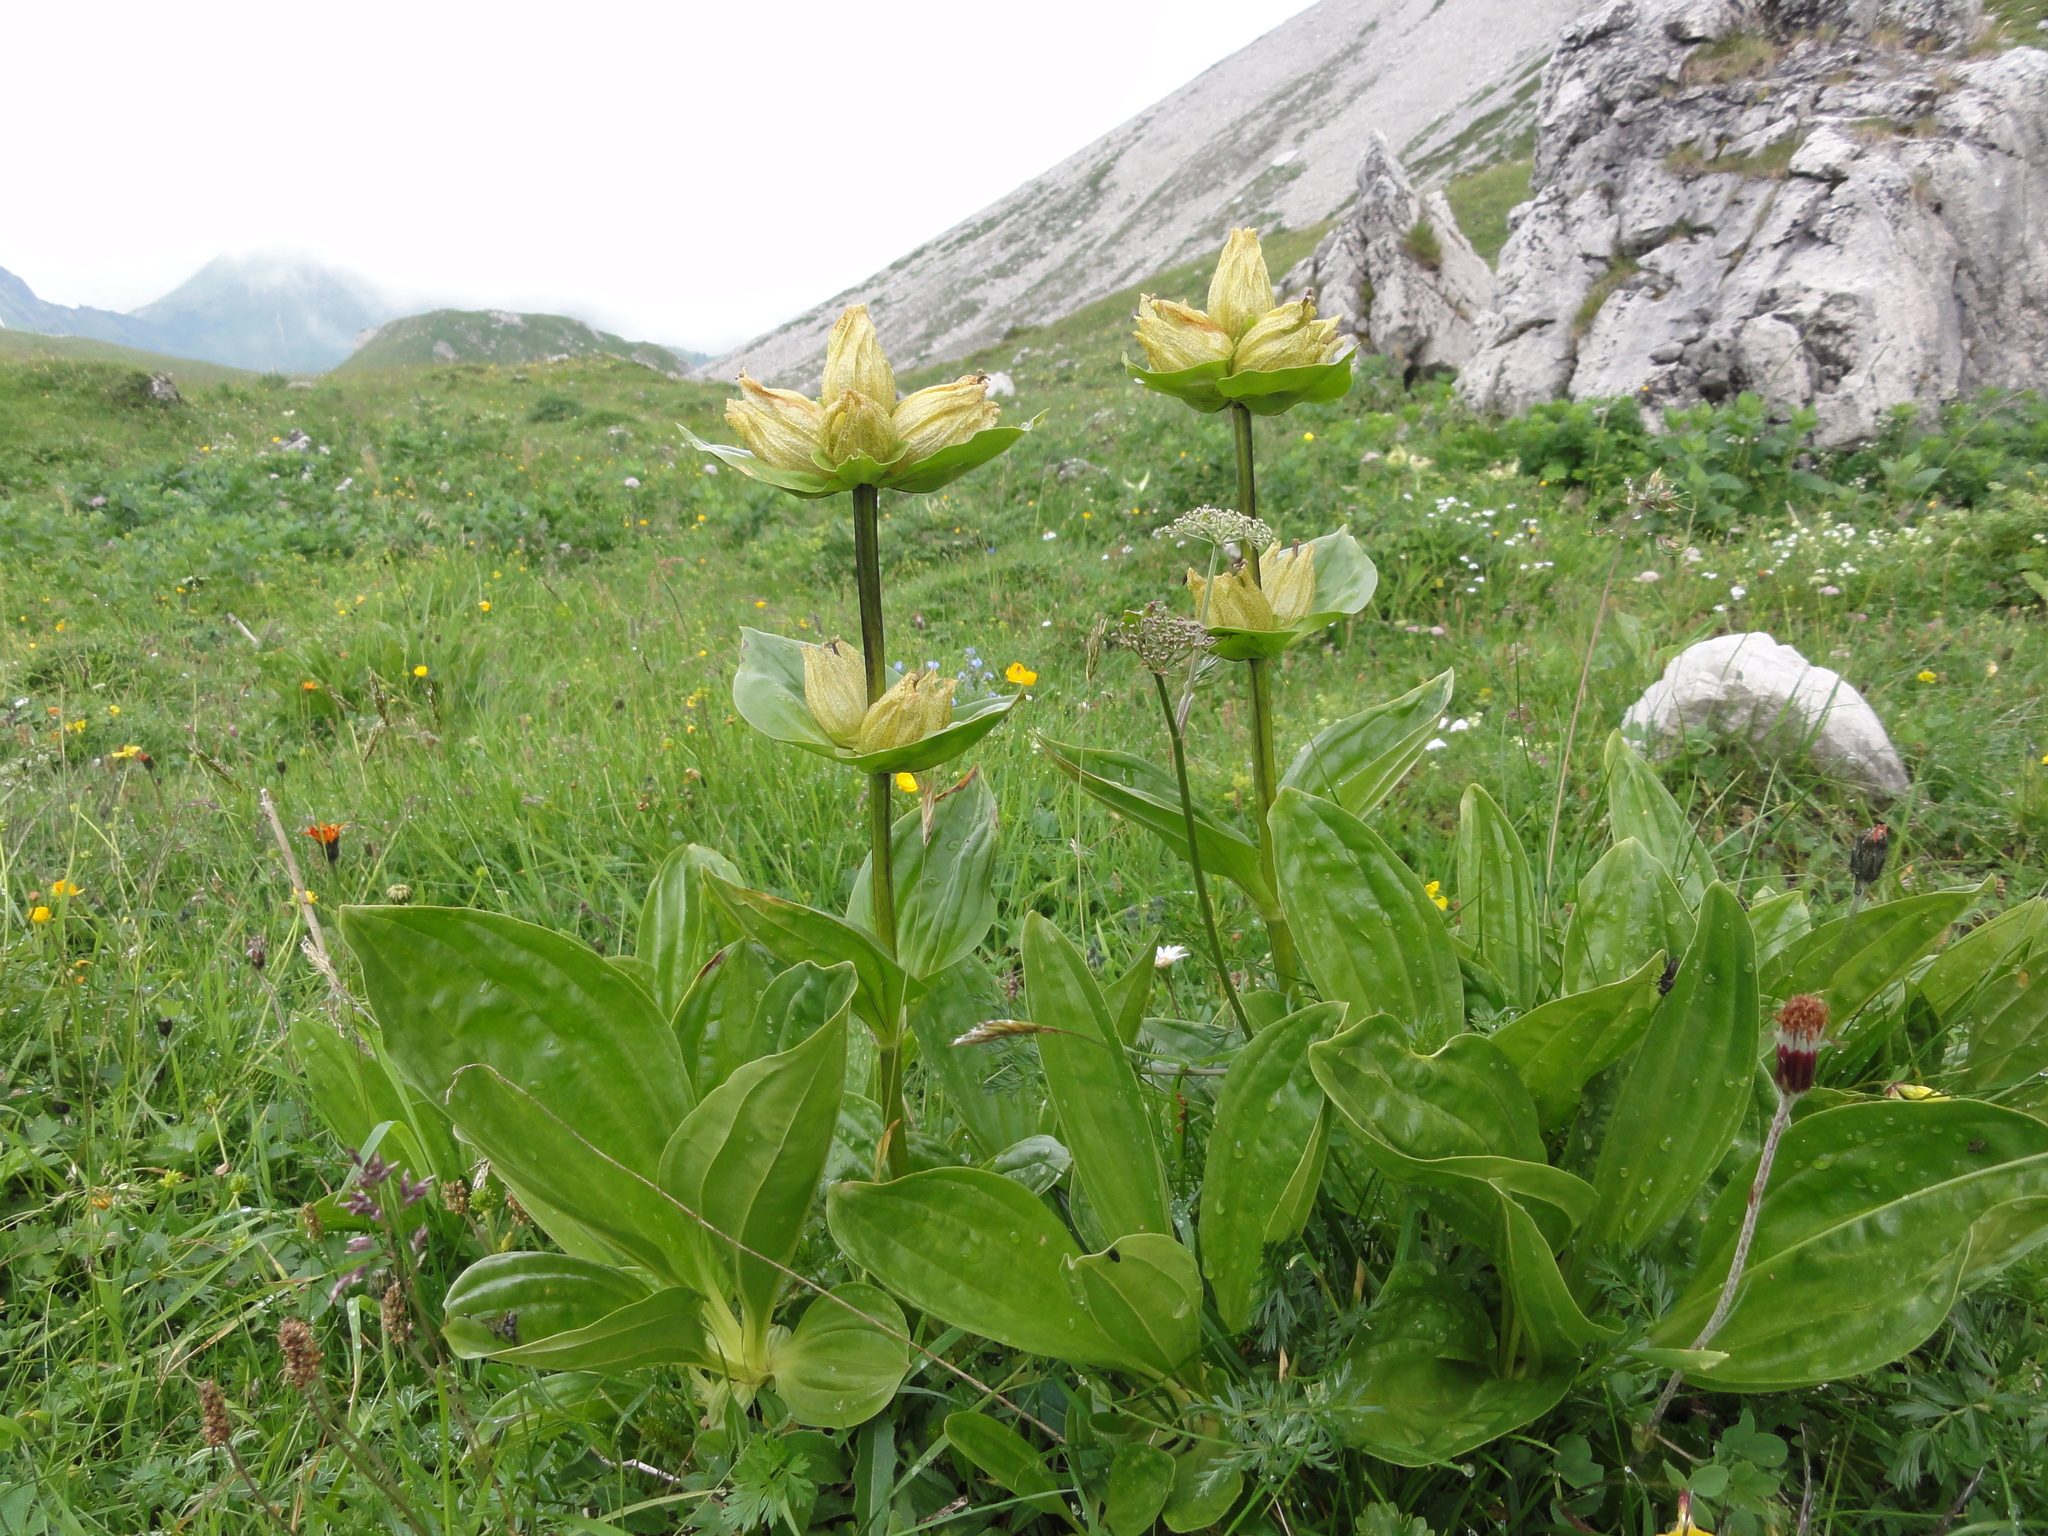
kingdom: Plantae
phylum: Tracheophyta
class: Magnoliopsida
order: Gentianales
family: Gentianaceae
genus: Gentiana
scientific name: Gentiana punctata
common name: Spotted gentian
